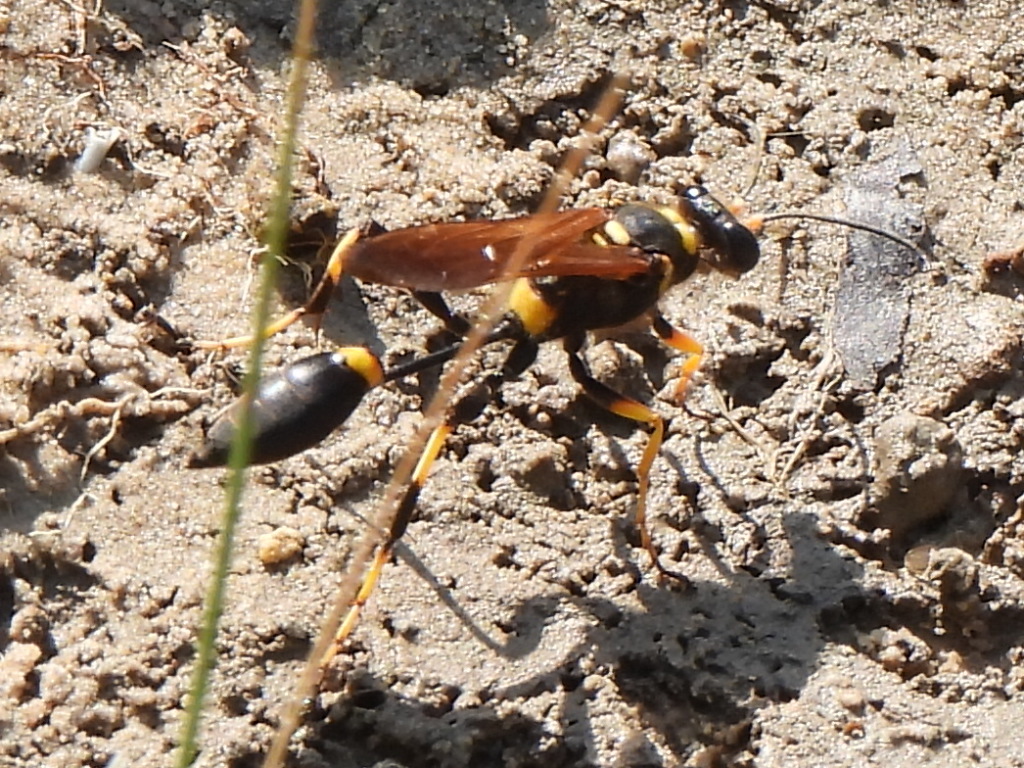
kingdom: Animalia
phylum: Arthropoda
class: Insecta
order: Hymenoptera
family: Sphecidae
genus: Sceliphron
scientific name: Sceliphron caementarium
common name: Mud dauber
